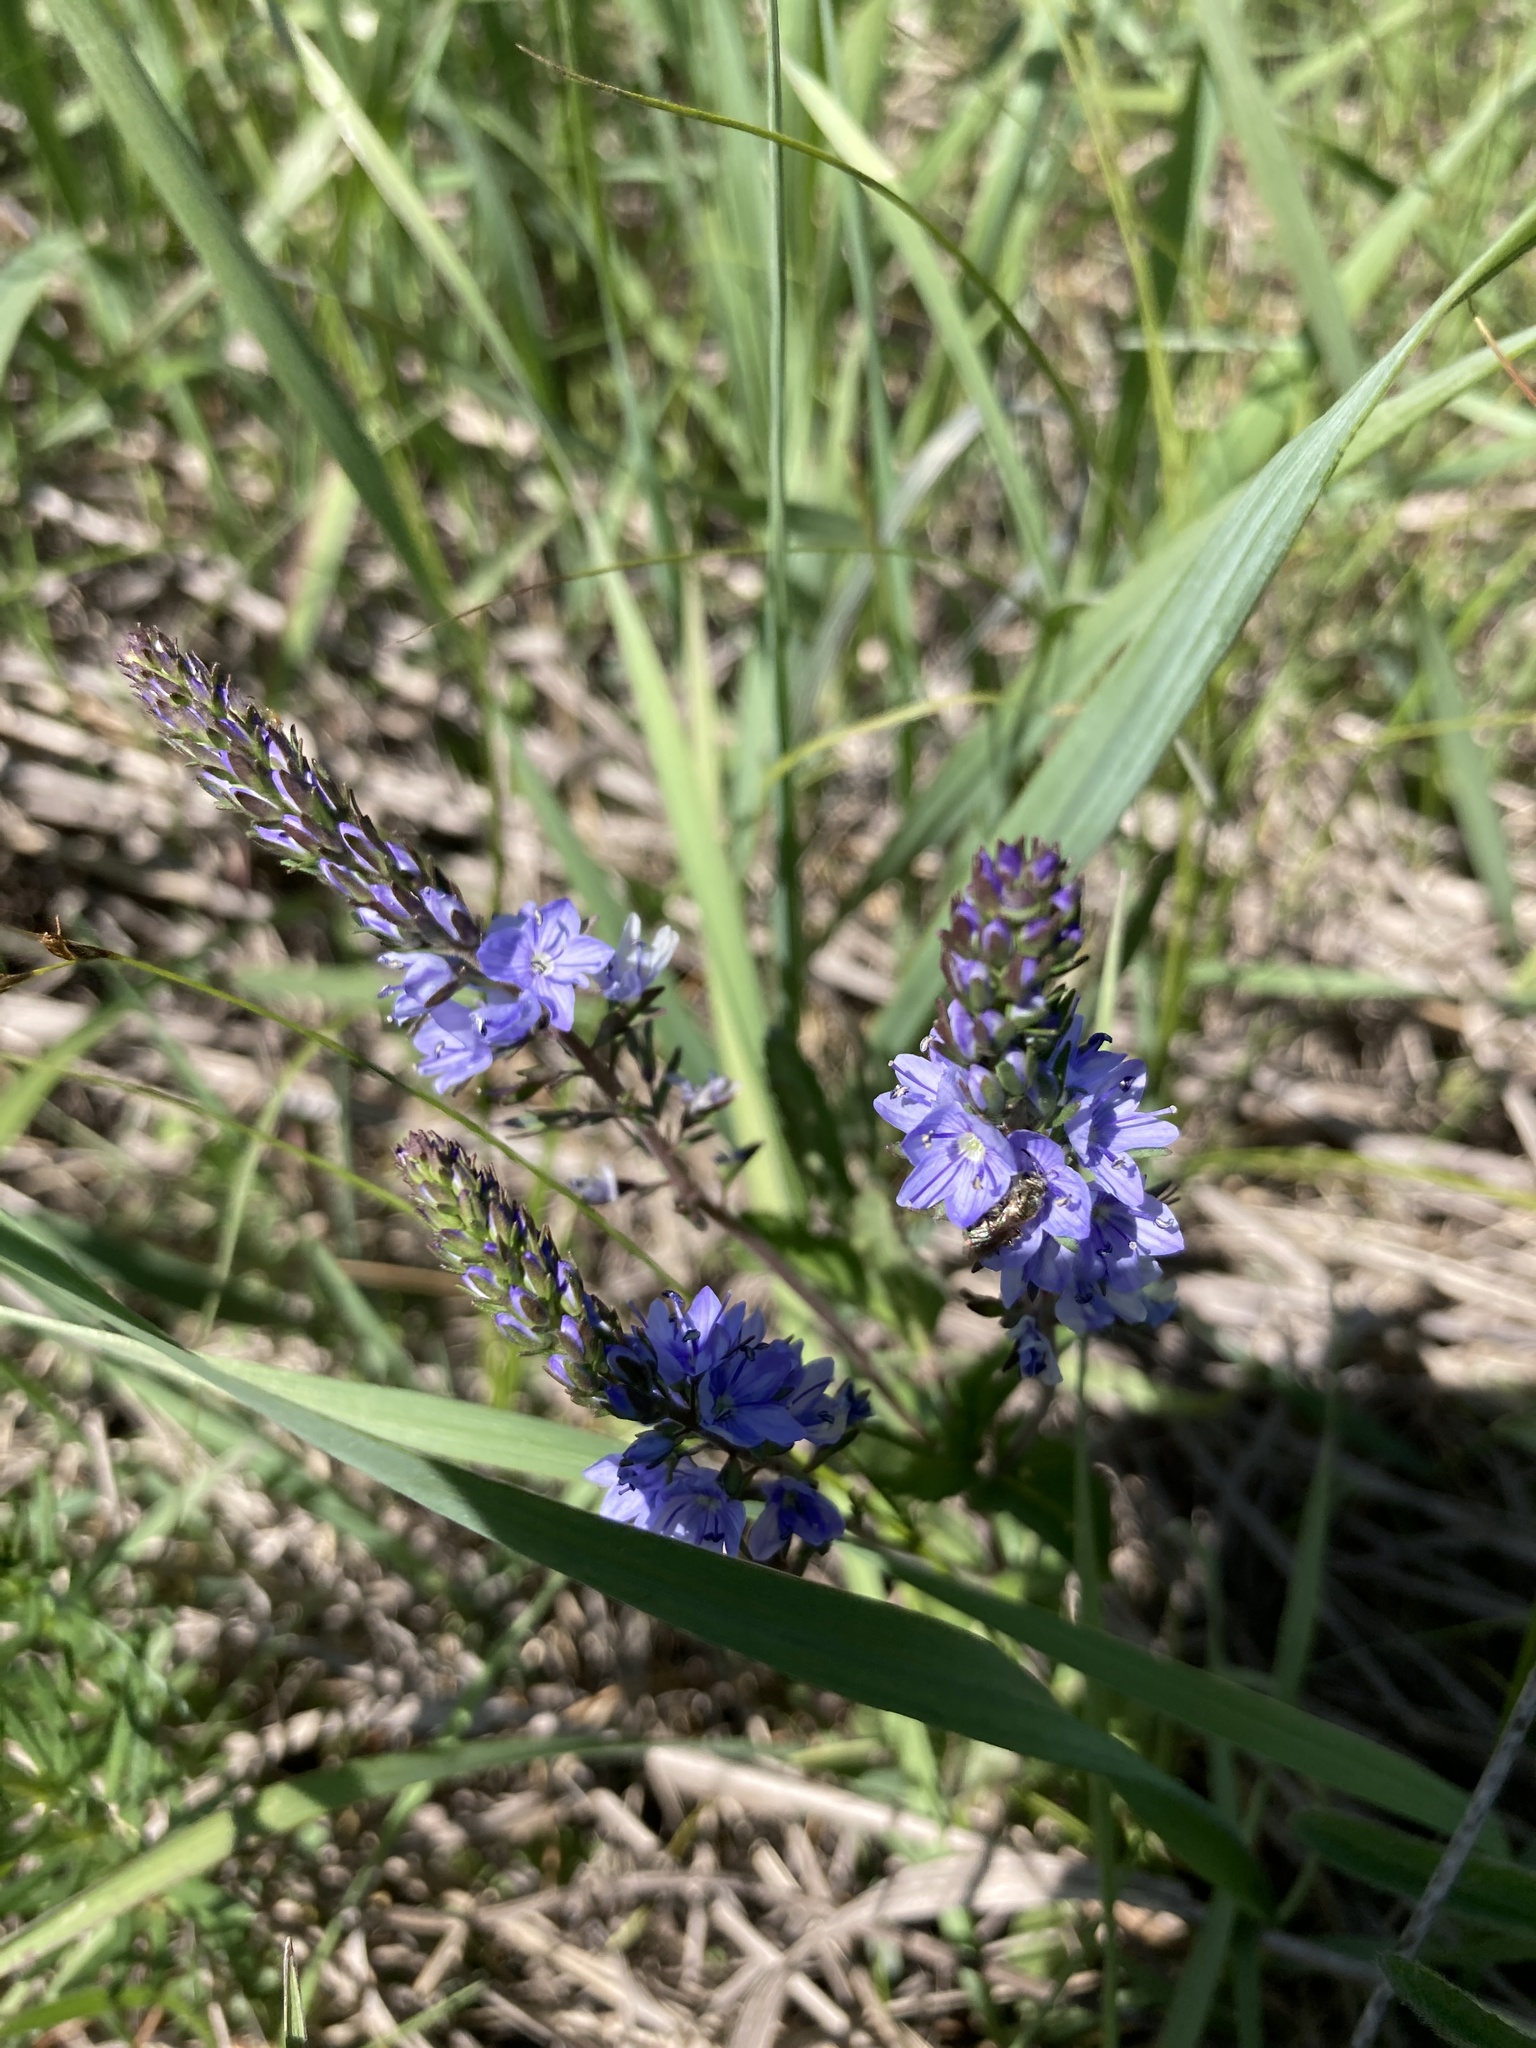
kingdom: Plantae
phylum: Tracheophyta
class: Magnoliopsida
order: Lamiales
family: Plantaginaceae
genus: Veronica
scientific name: Veronica prostrata
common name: Prostrate speedwell
